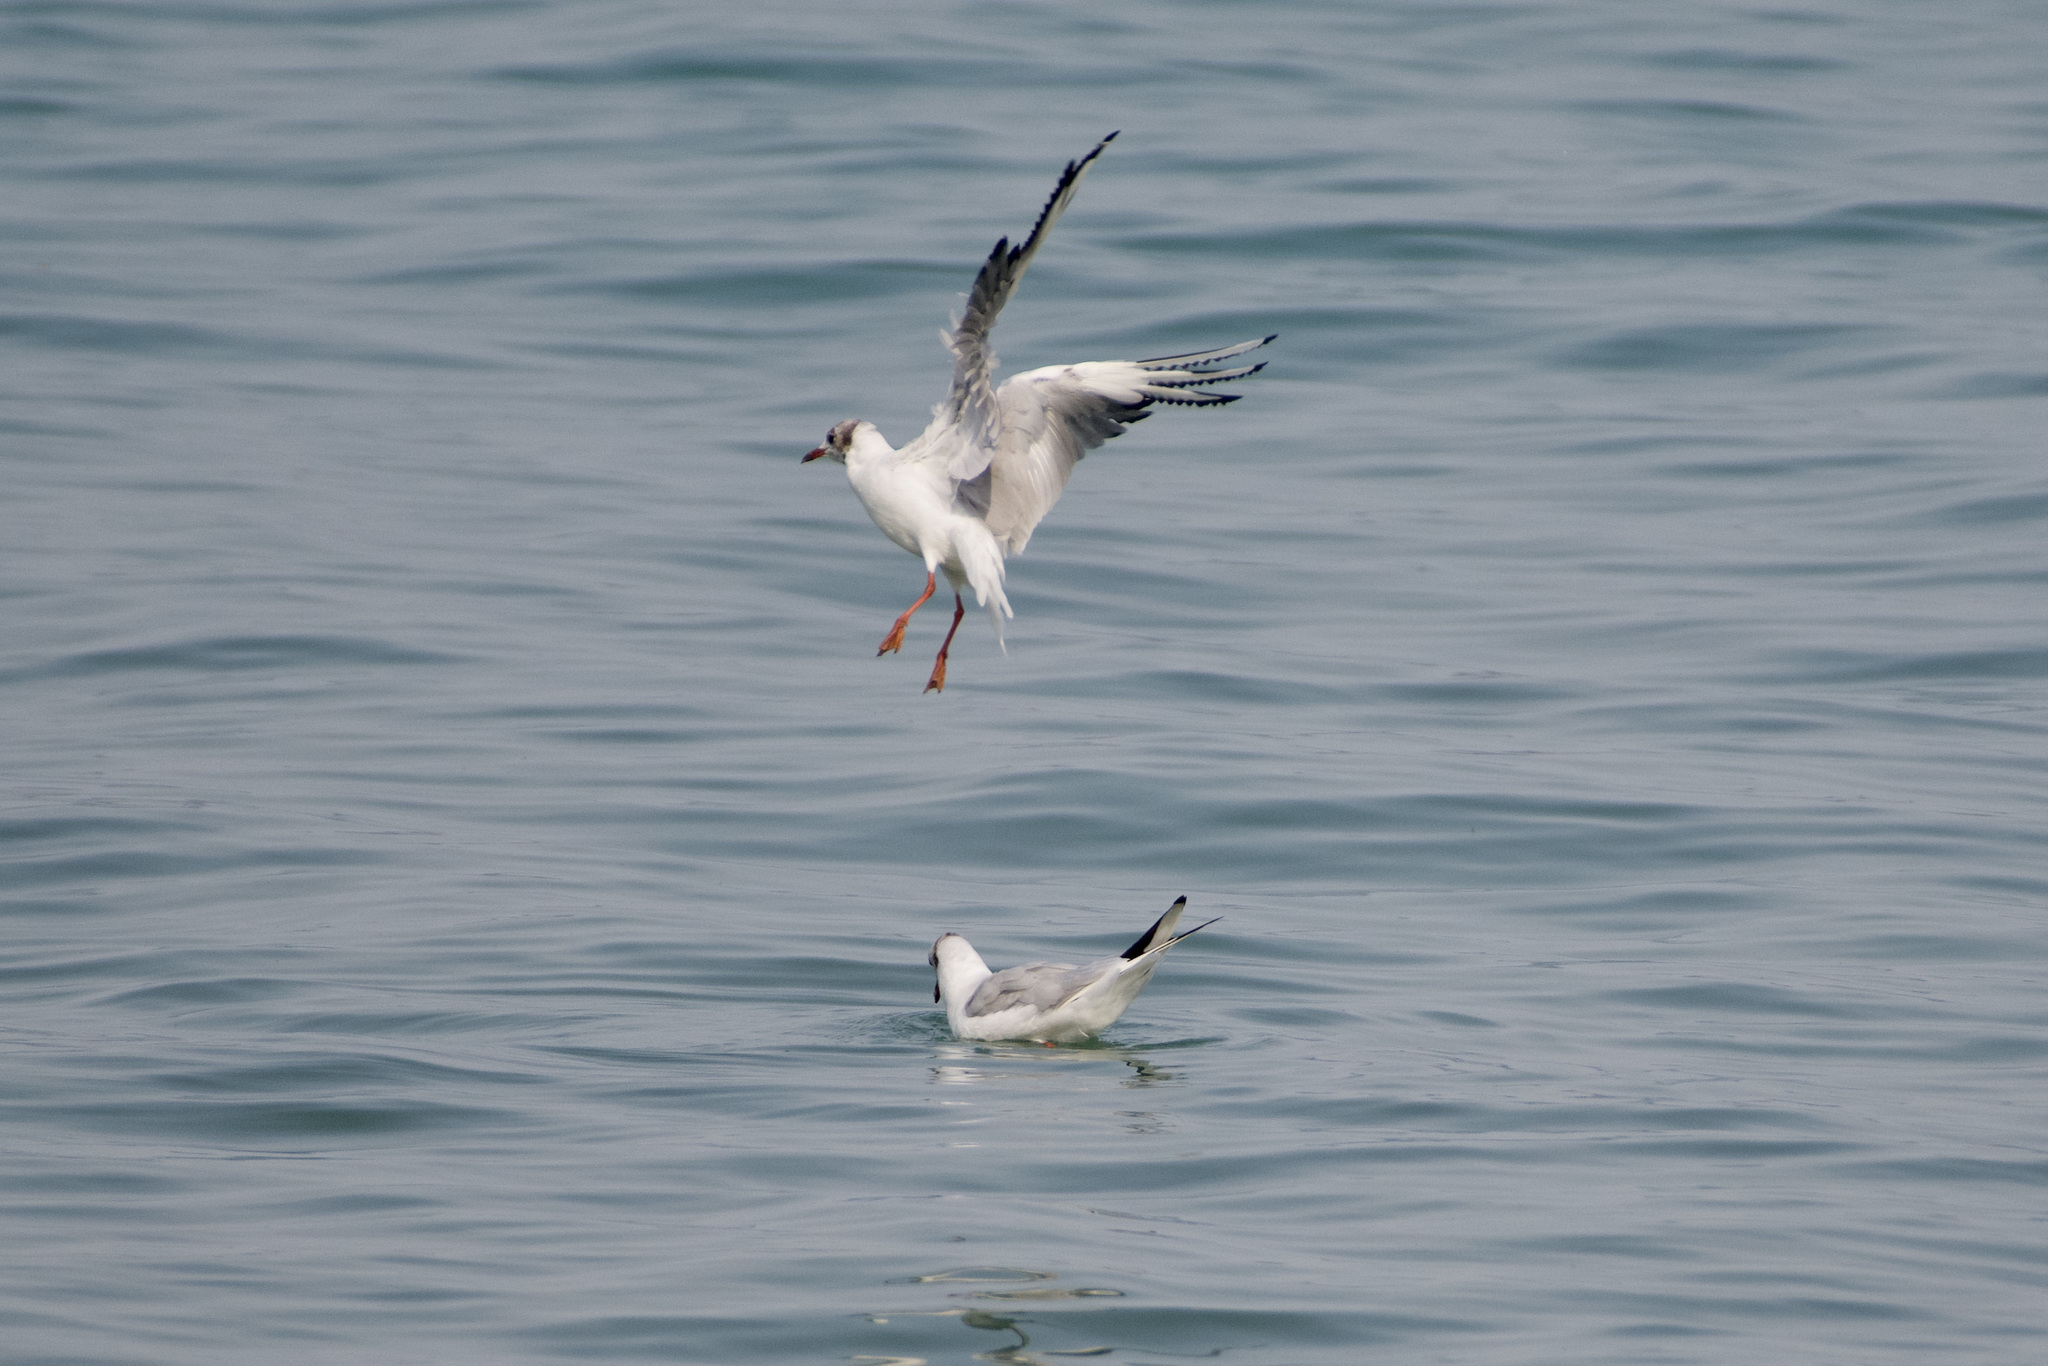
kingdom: Animalia
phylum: Chordata
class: Aves
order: Charadriiformes
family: Laridae
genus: Chroicocephalus
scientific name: Chroicocephalus ridibundus
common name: Black-headed gull
